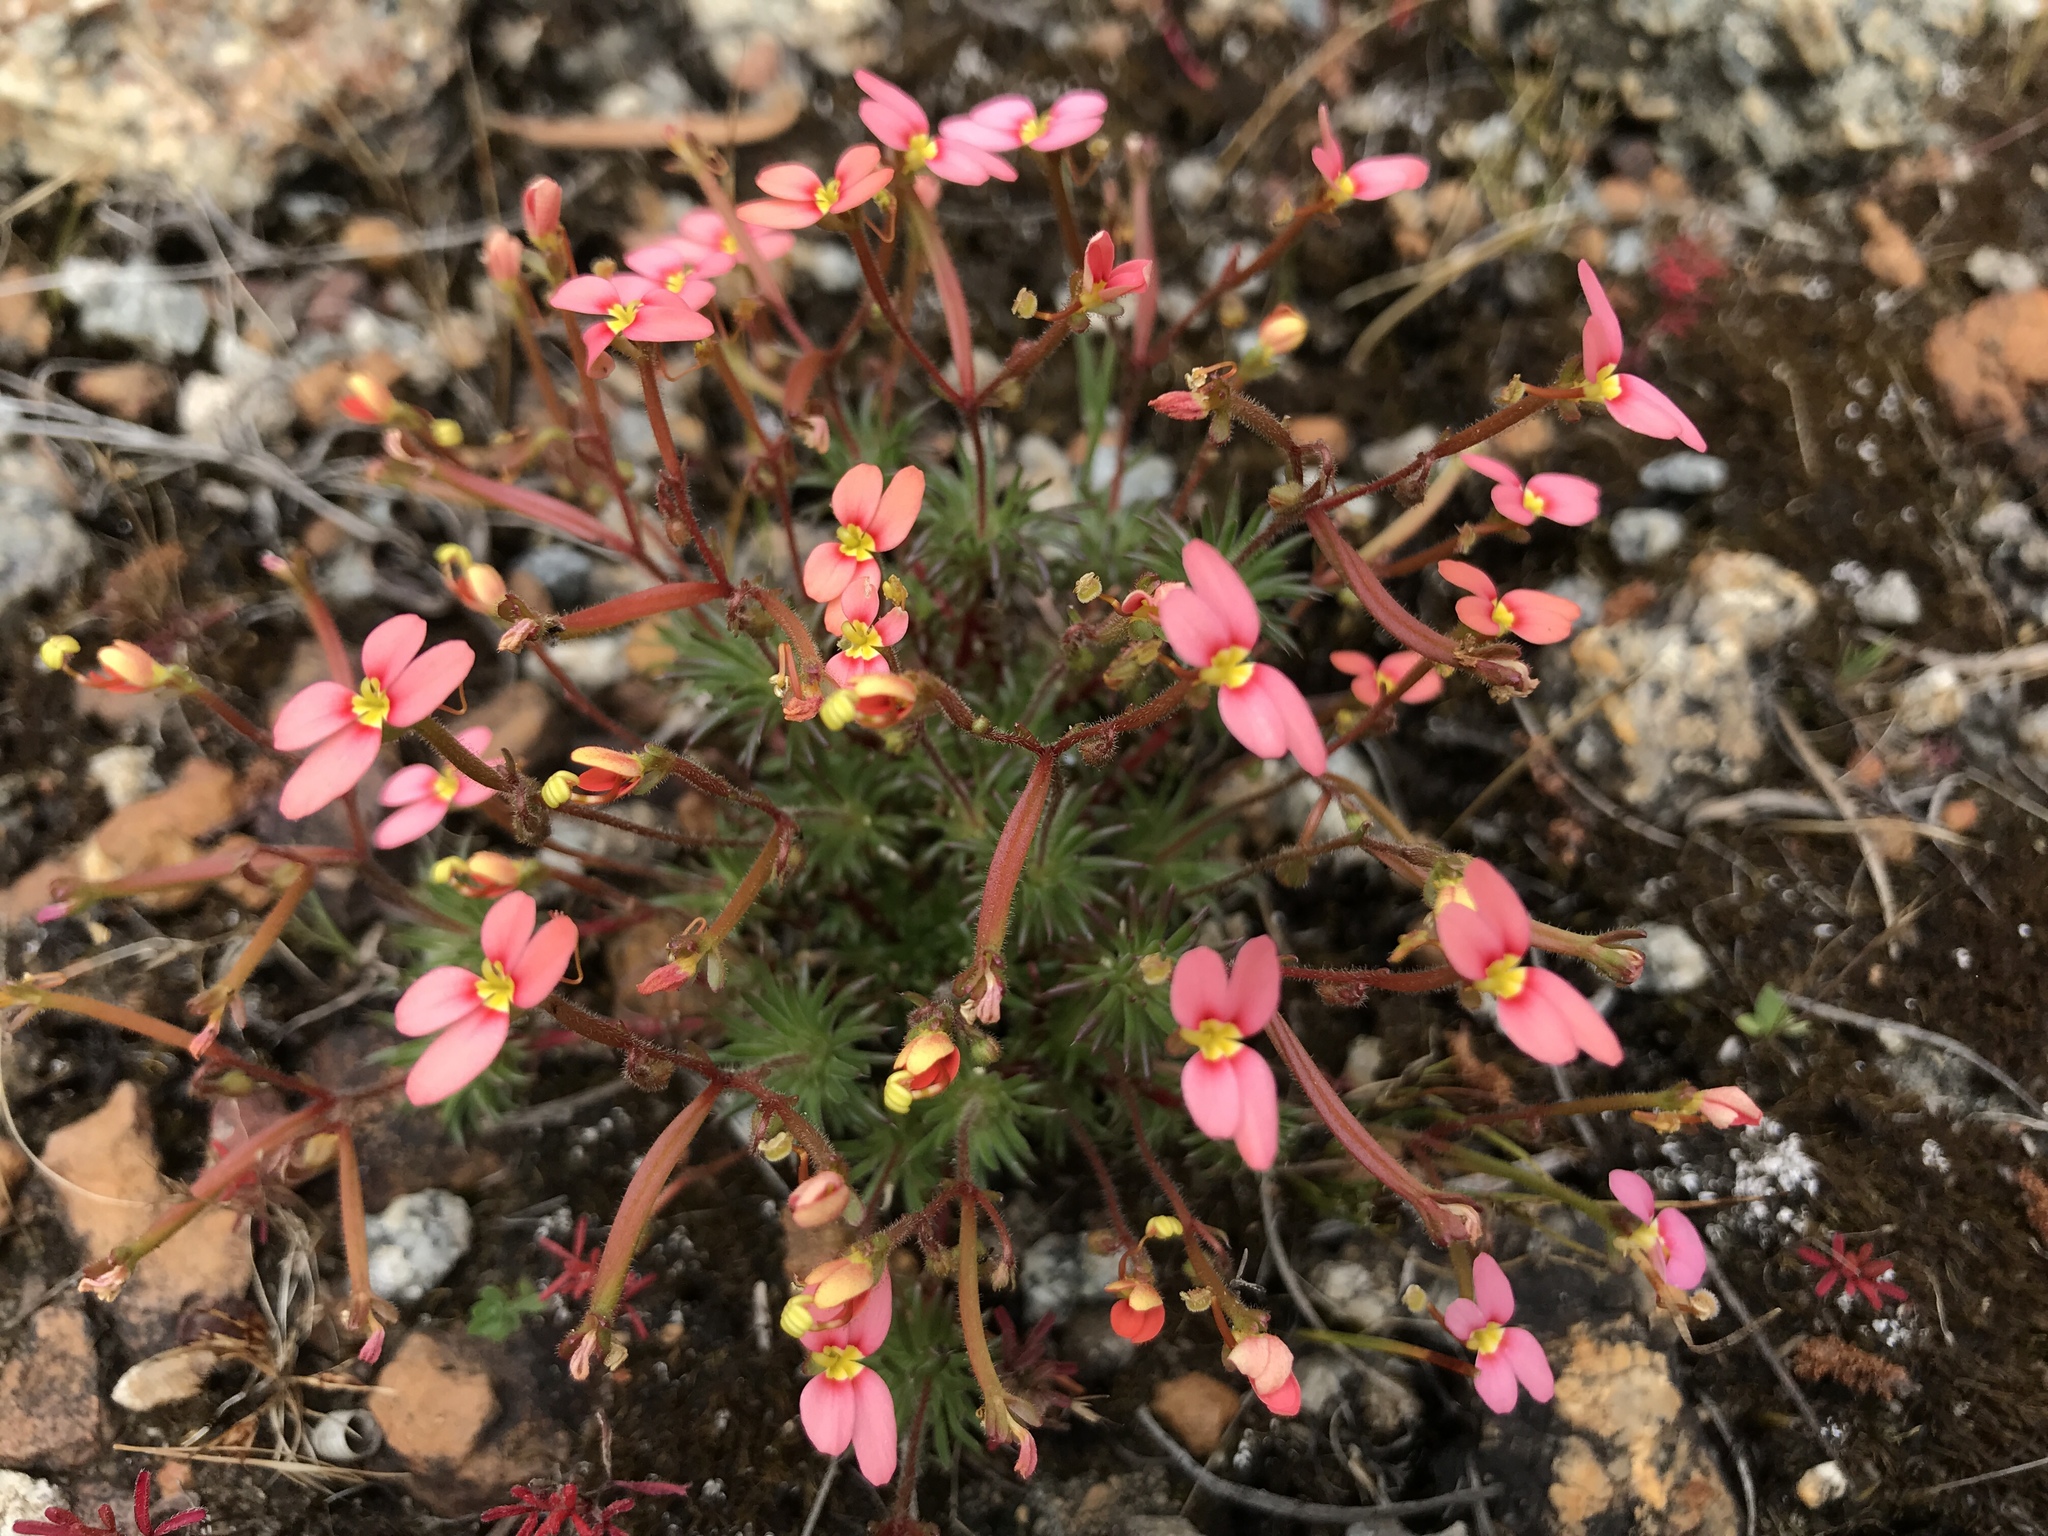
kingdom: Plantae
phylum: Tracheophyta
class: Magnoliopsida
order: Asterales
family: Stylidiaceae
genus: Stylidium
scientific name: Stylidium bulbiferum
